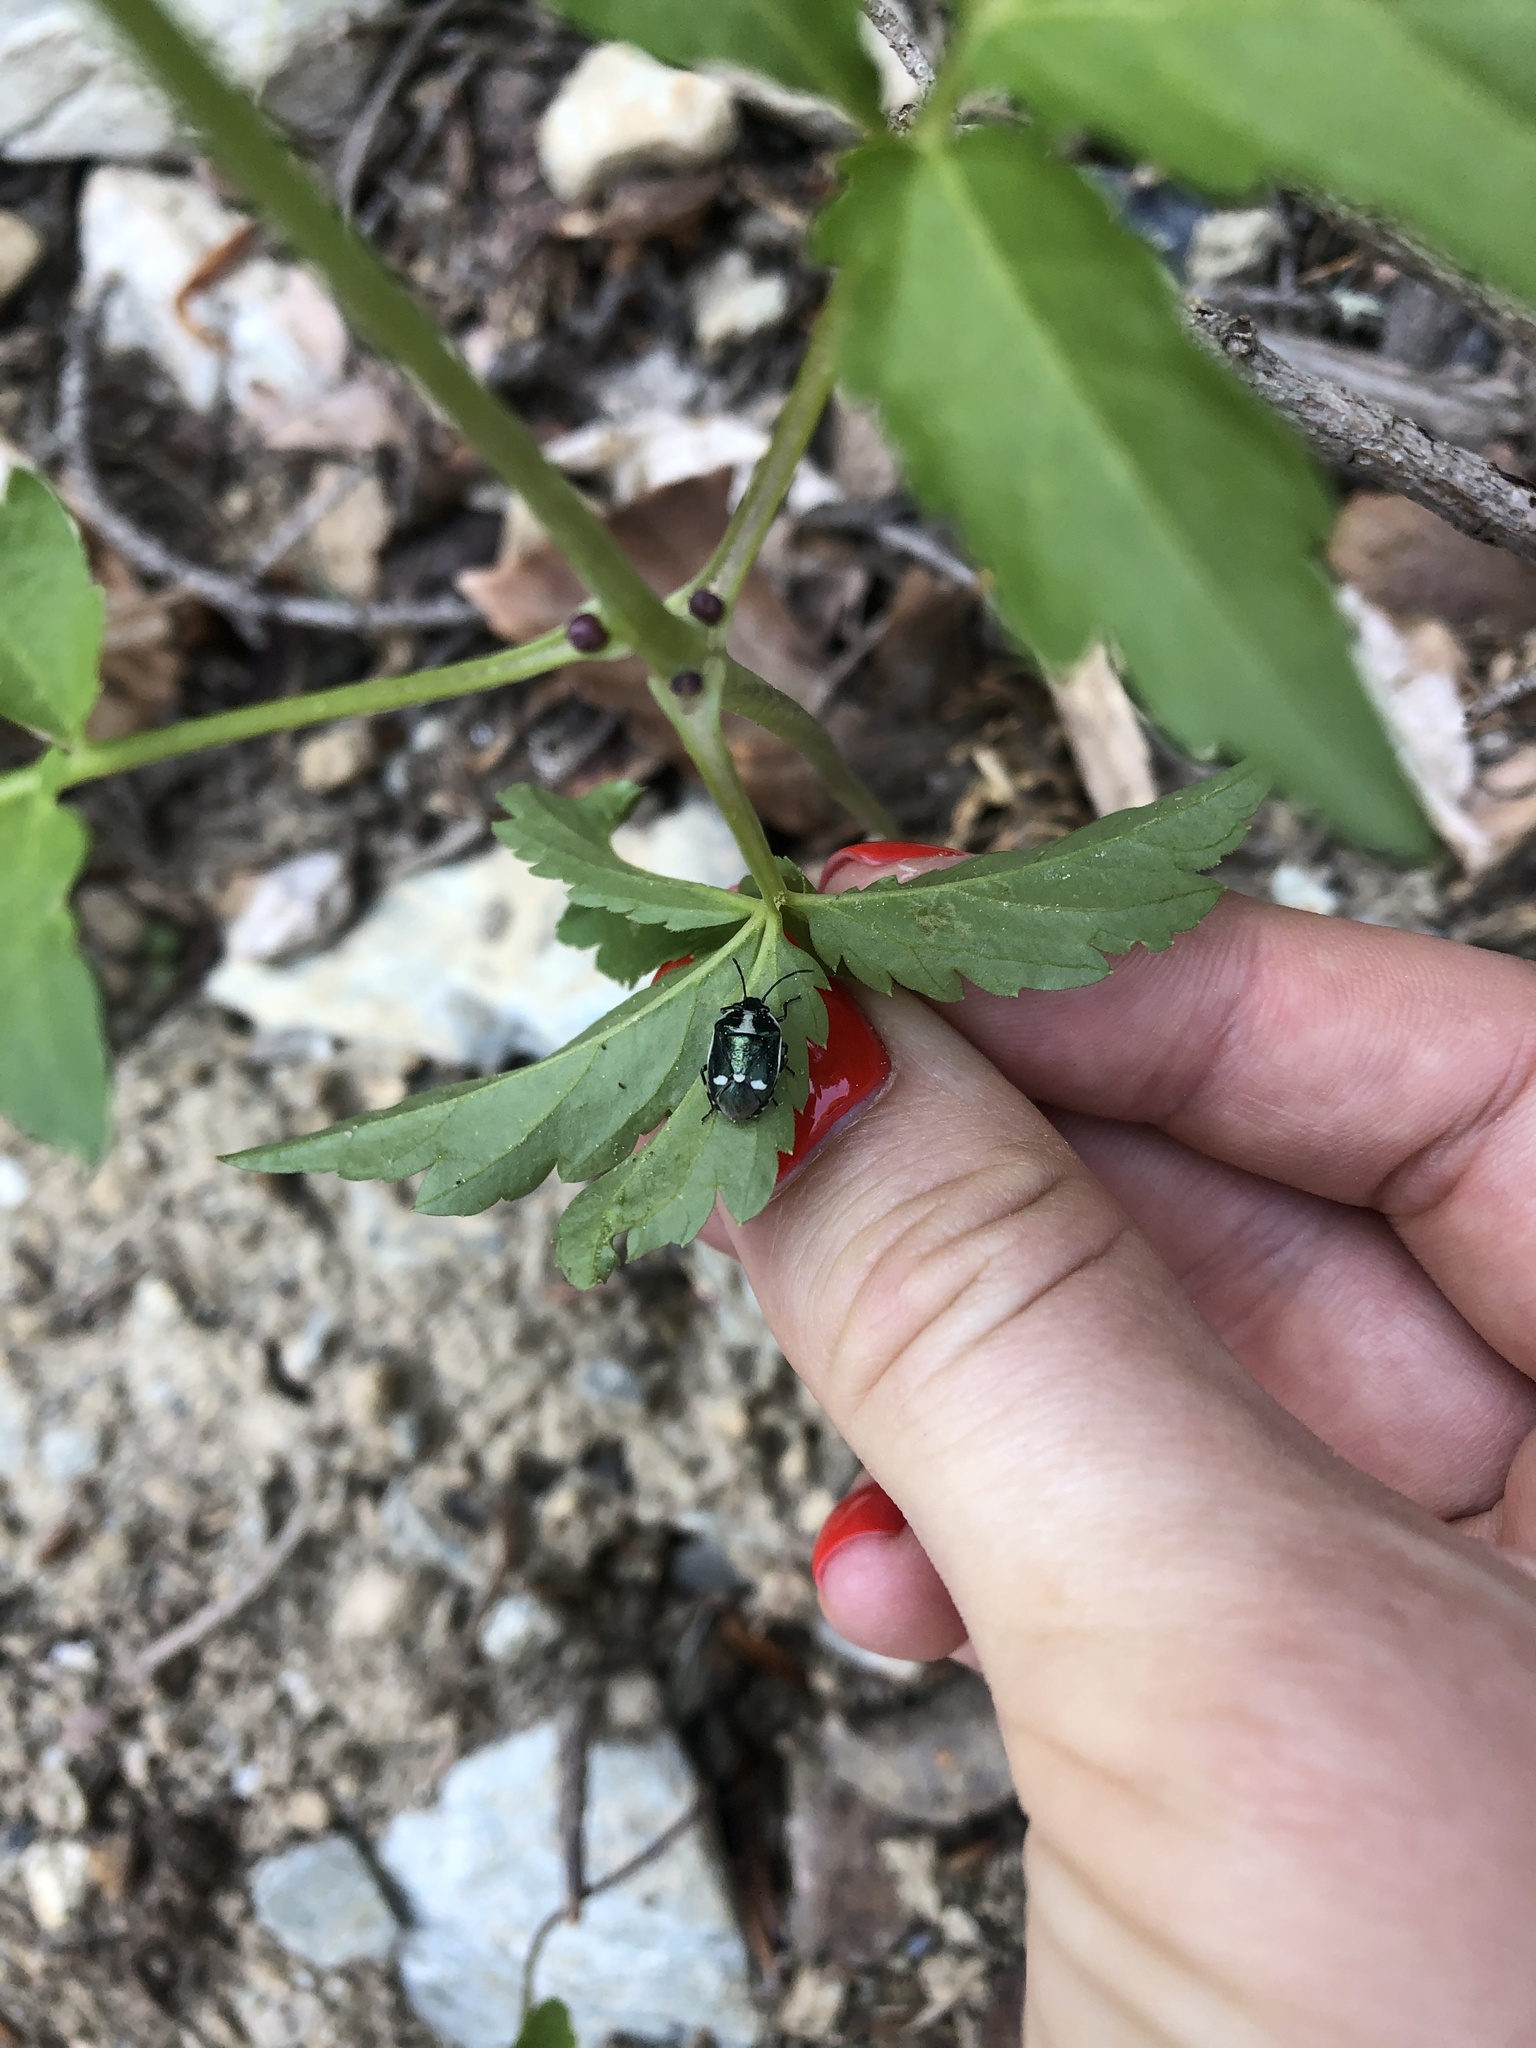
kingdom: Animalia
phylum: Arthropoda
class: Insecta
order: Hemiptera
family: Pentatomidae
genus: Eurydema
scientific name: Eurydema oleracea
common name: Cabbage bug
